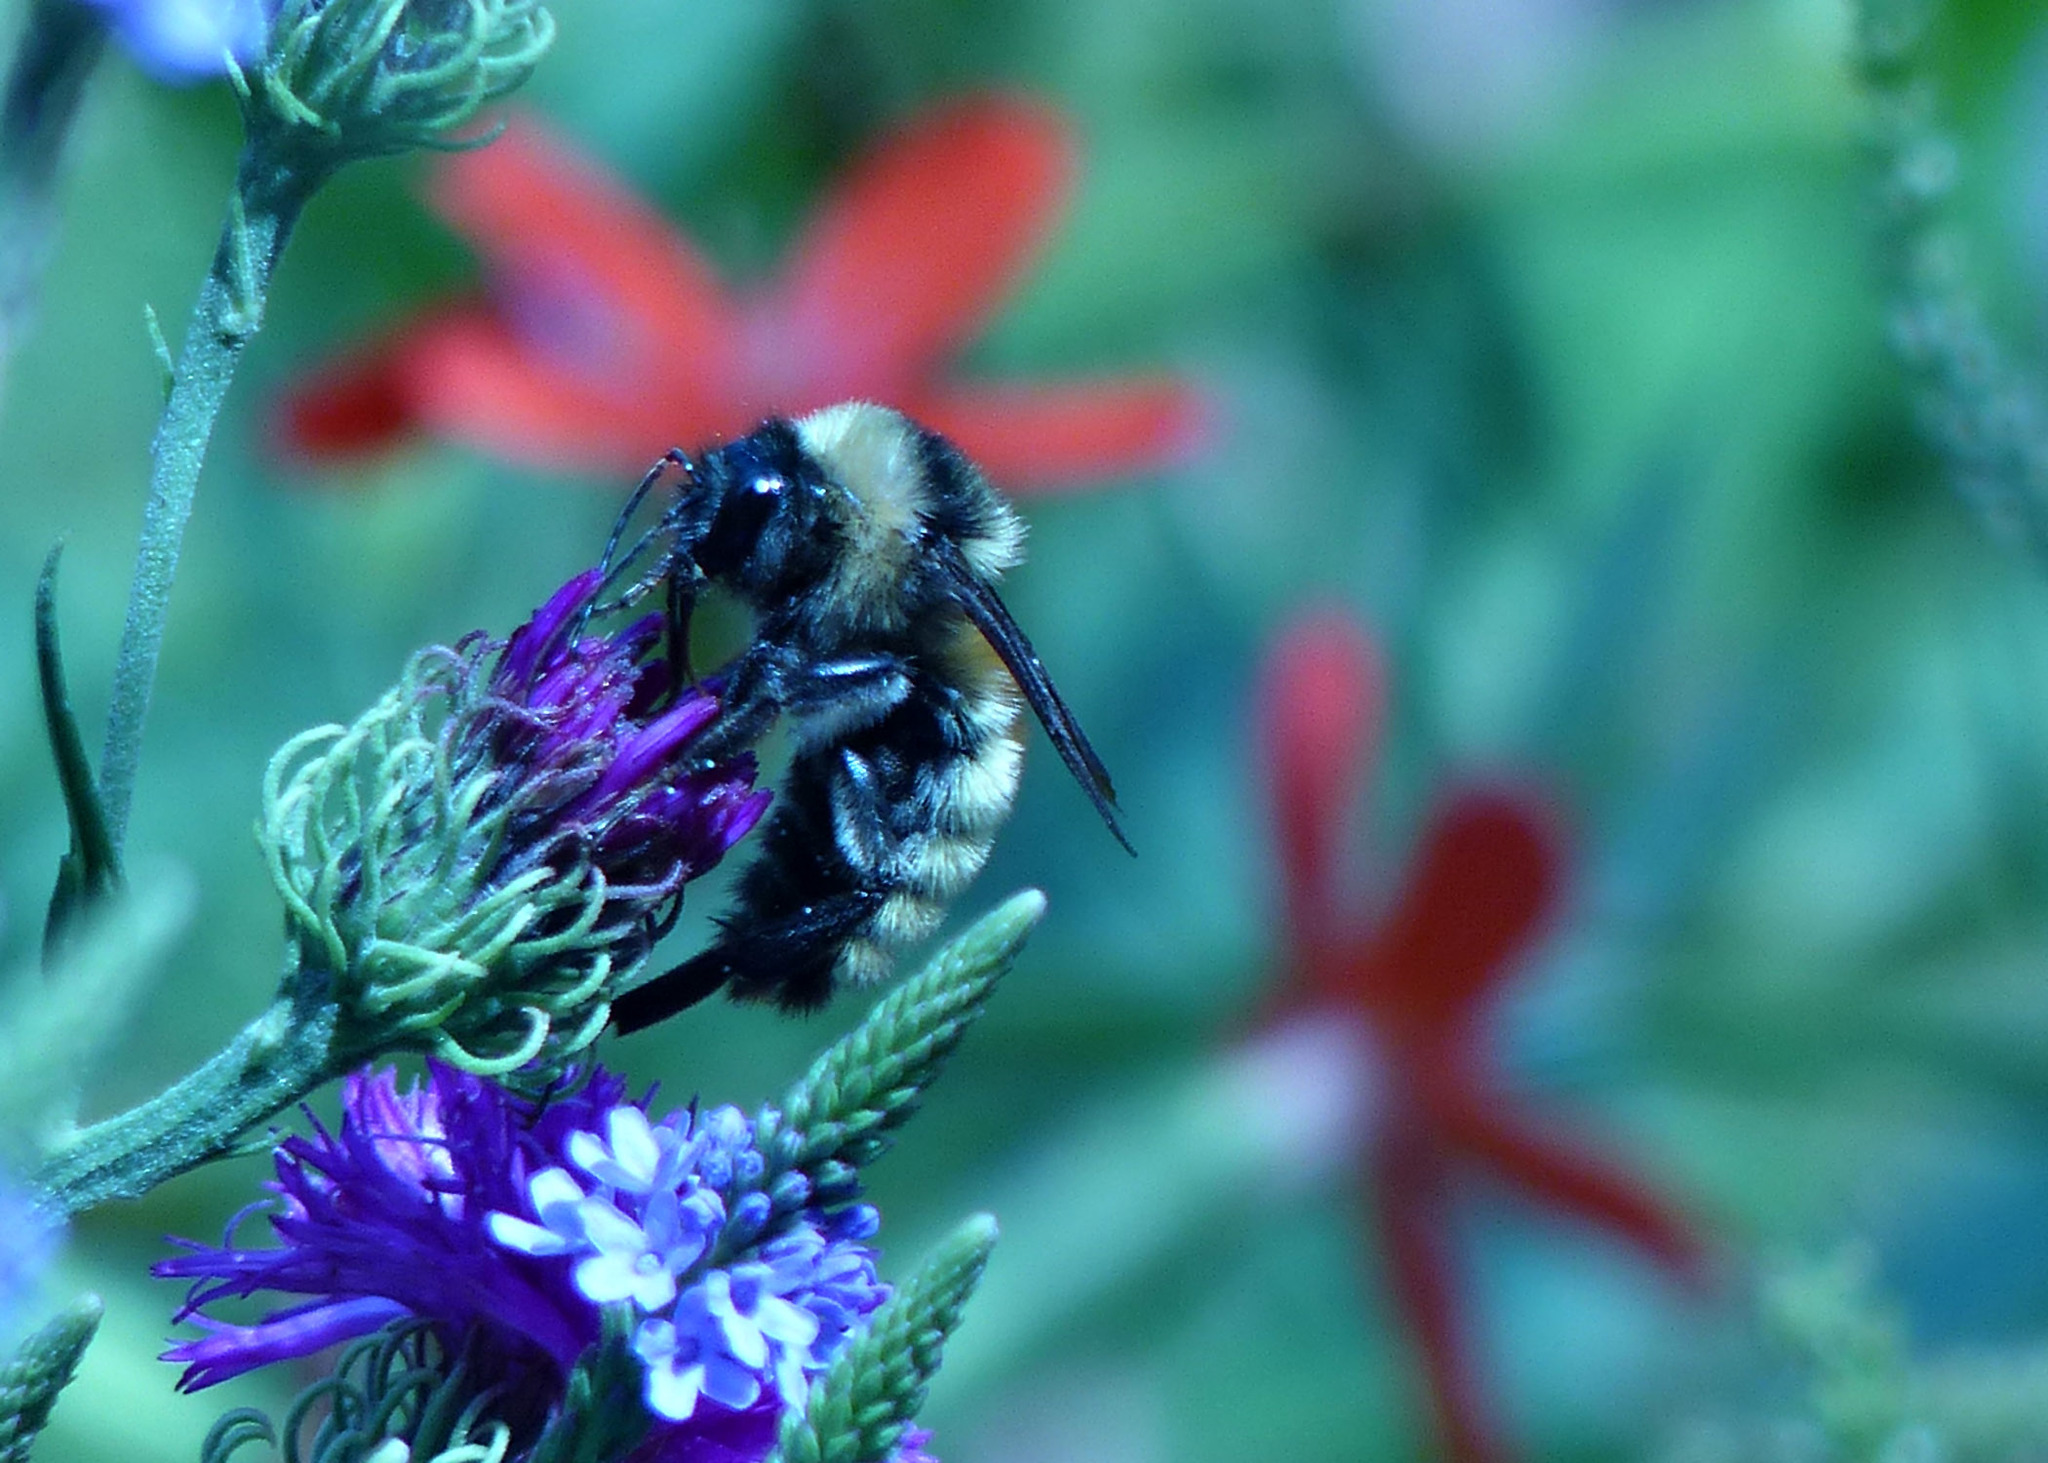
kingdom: Animalia
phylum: Arthropoda
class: Insecta
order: Hymenoptera
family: Apidae
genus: Bombus
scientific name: Bombus pensylvanicus
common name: Bumble bee
